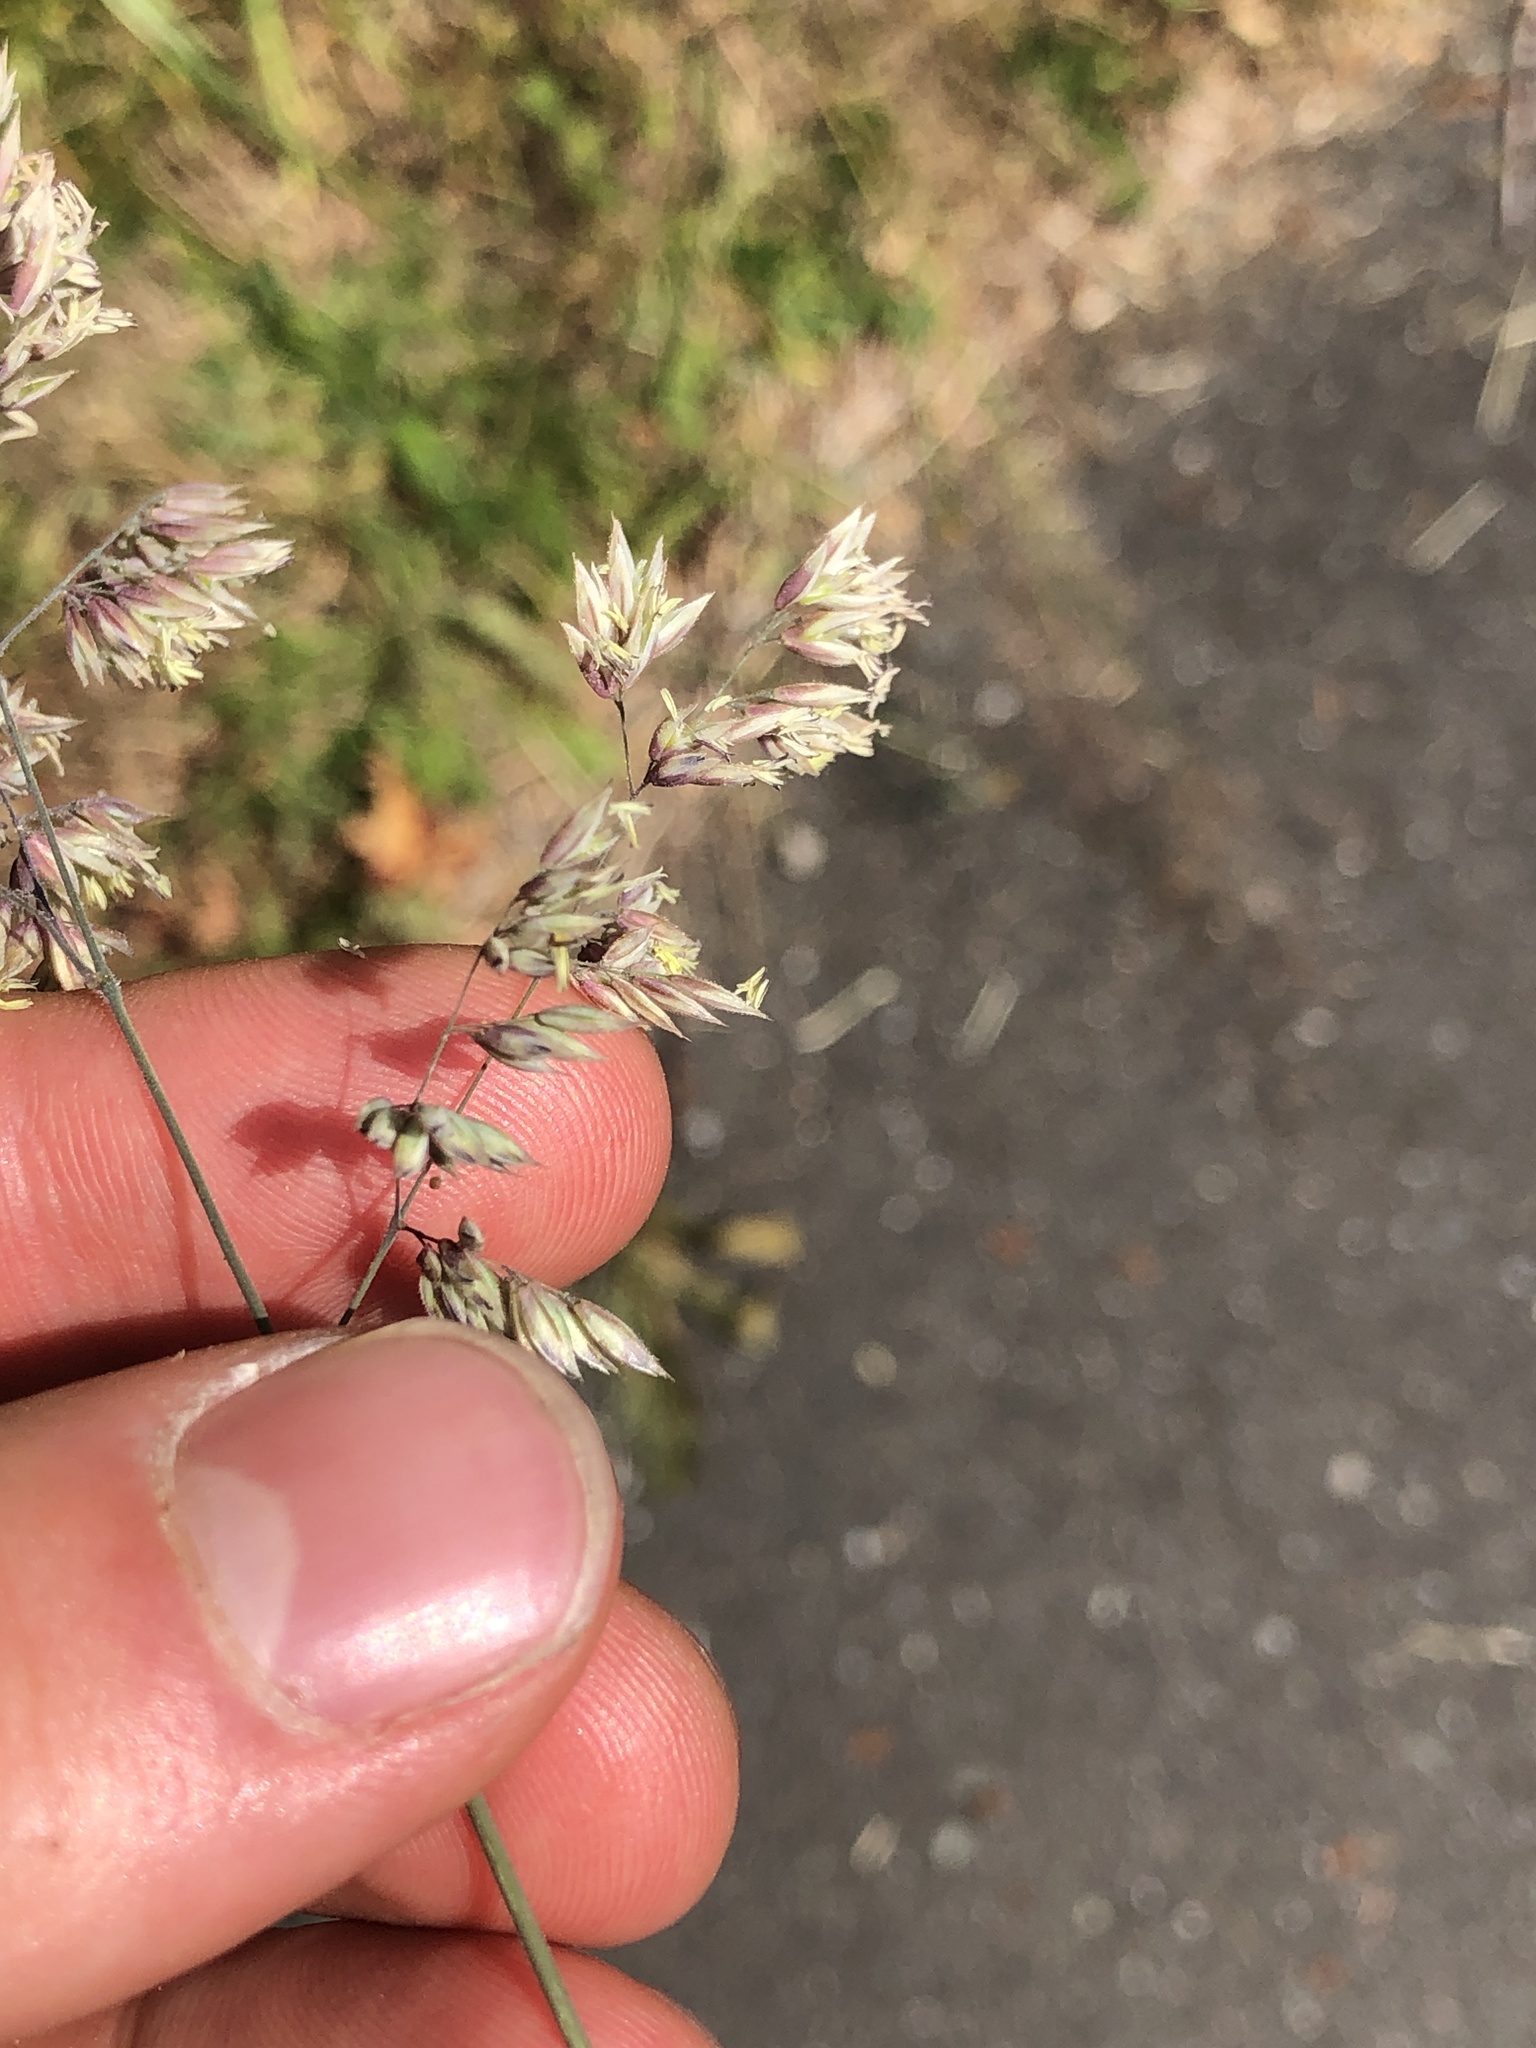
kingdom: Plantae
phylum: Tracheophyta
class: Liliopsida
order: Poales
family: Poaceae
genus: Holcus
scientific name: Holcus lanatus
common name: Yorkshire-fog
